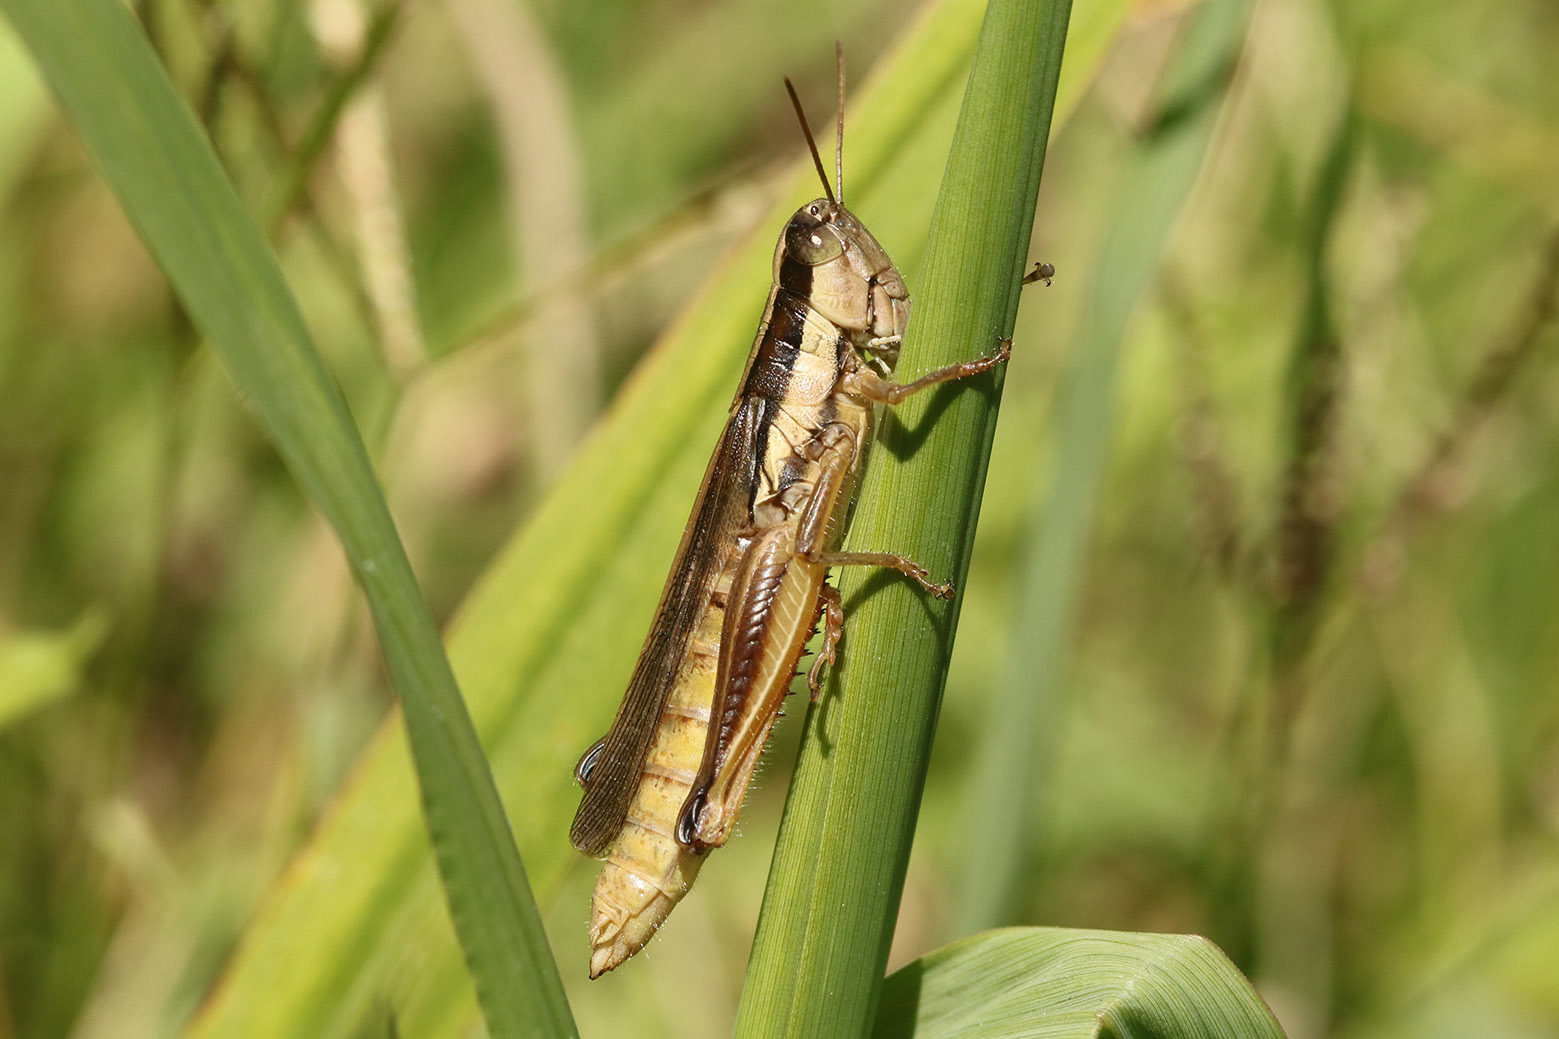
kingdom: Animalia
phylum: Arthropoda
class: Insecta
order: Orthoptera
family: Acrididae
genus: Scotussa
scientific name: Scotussa lemniscata
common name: Slender orange-legged grasshopper
